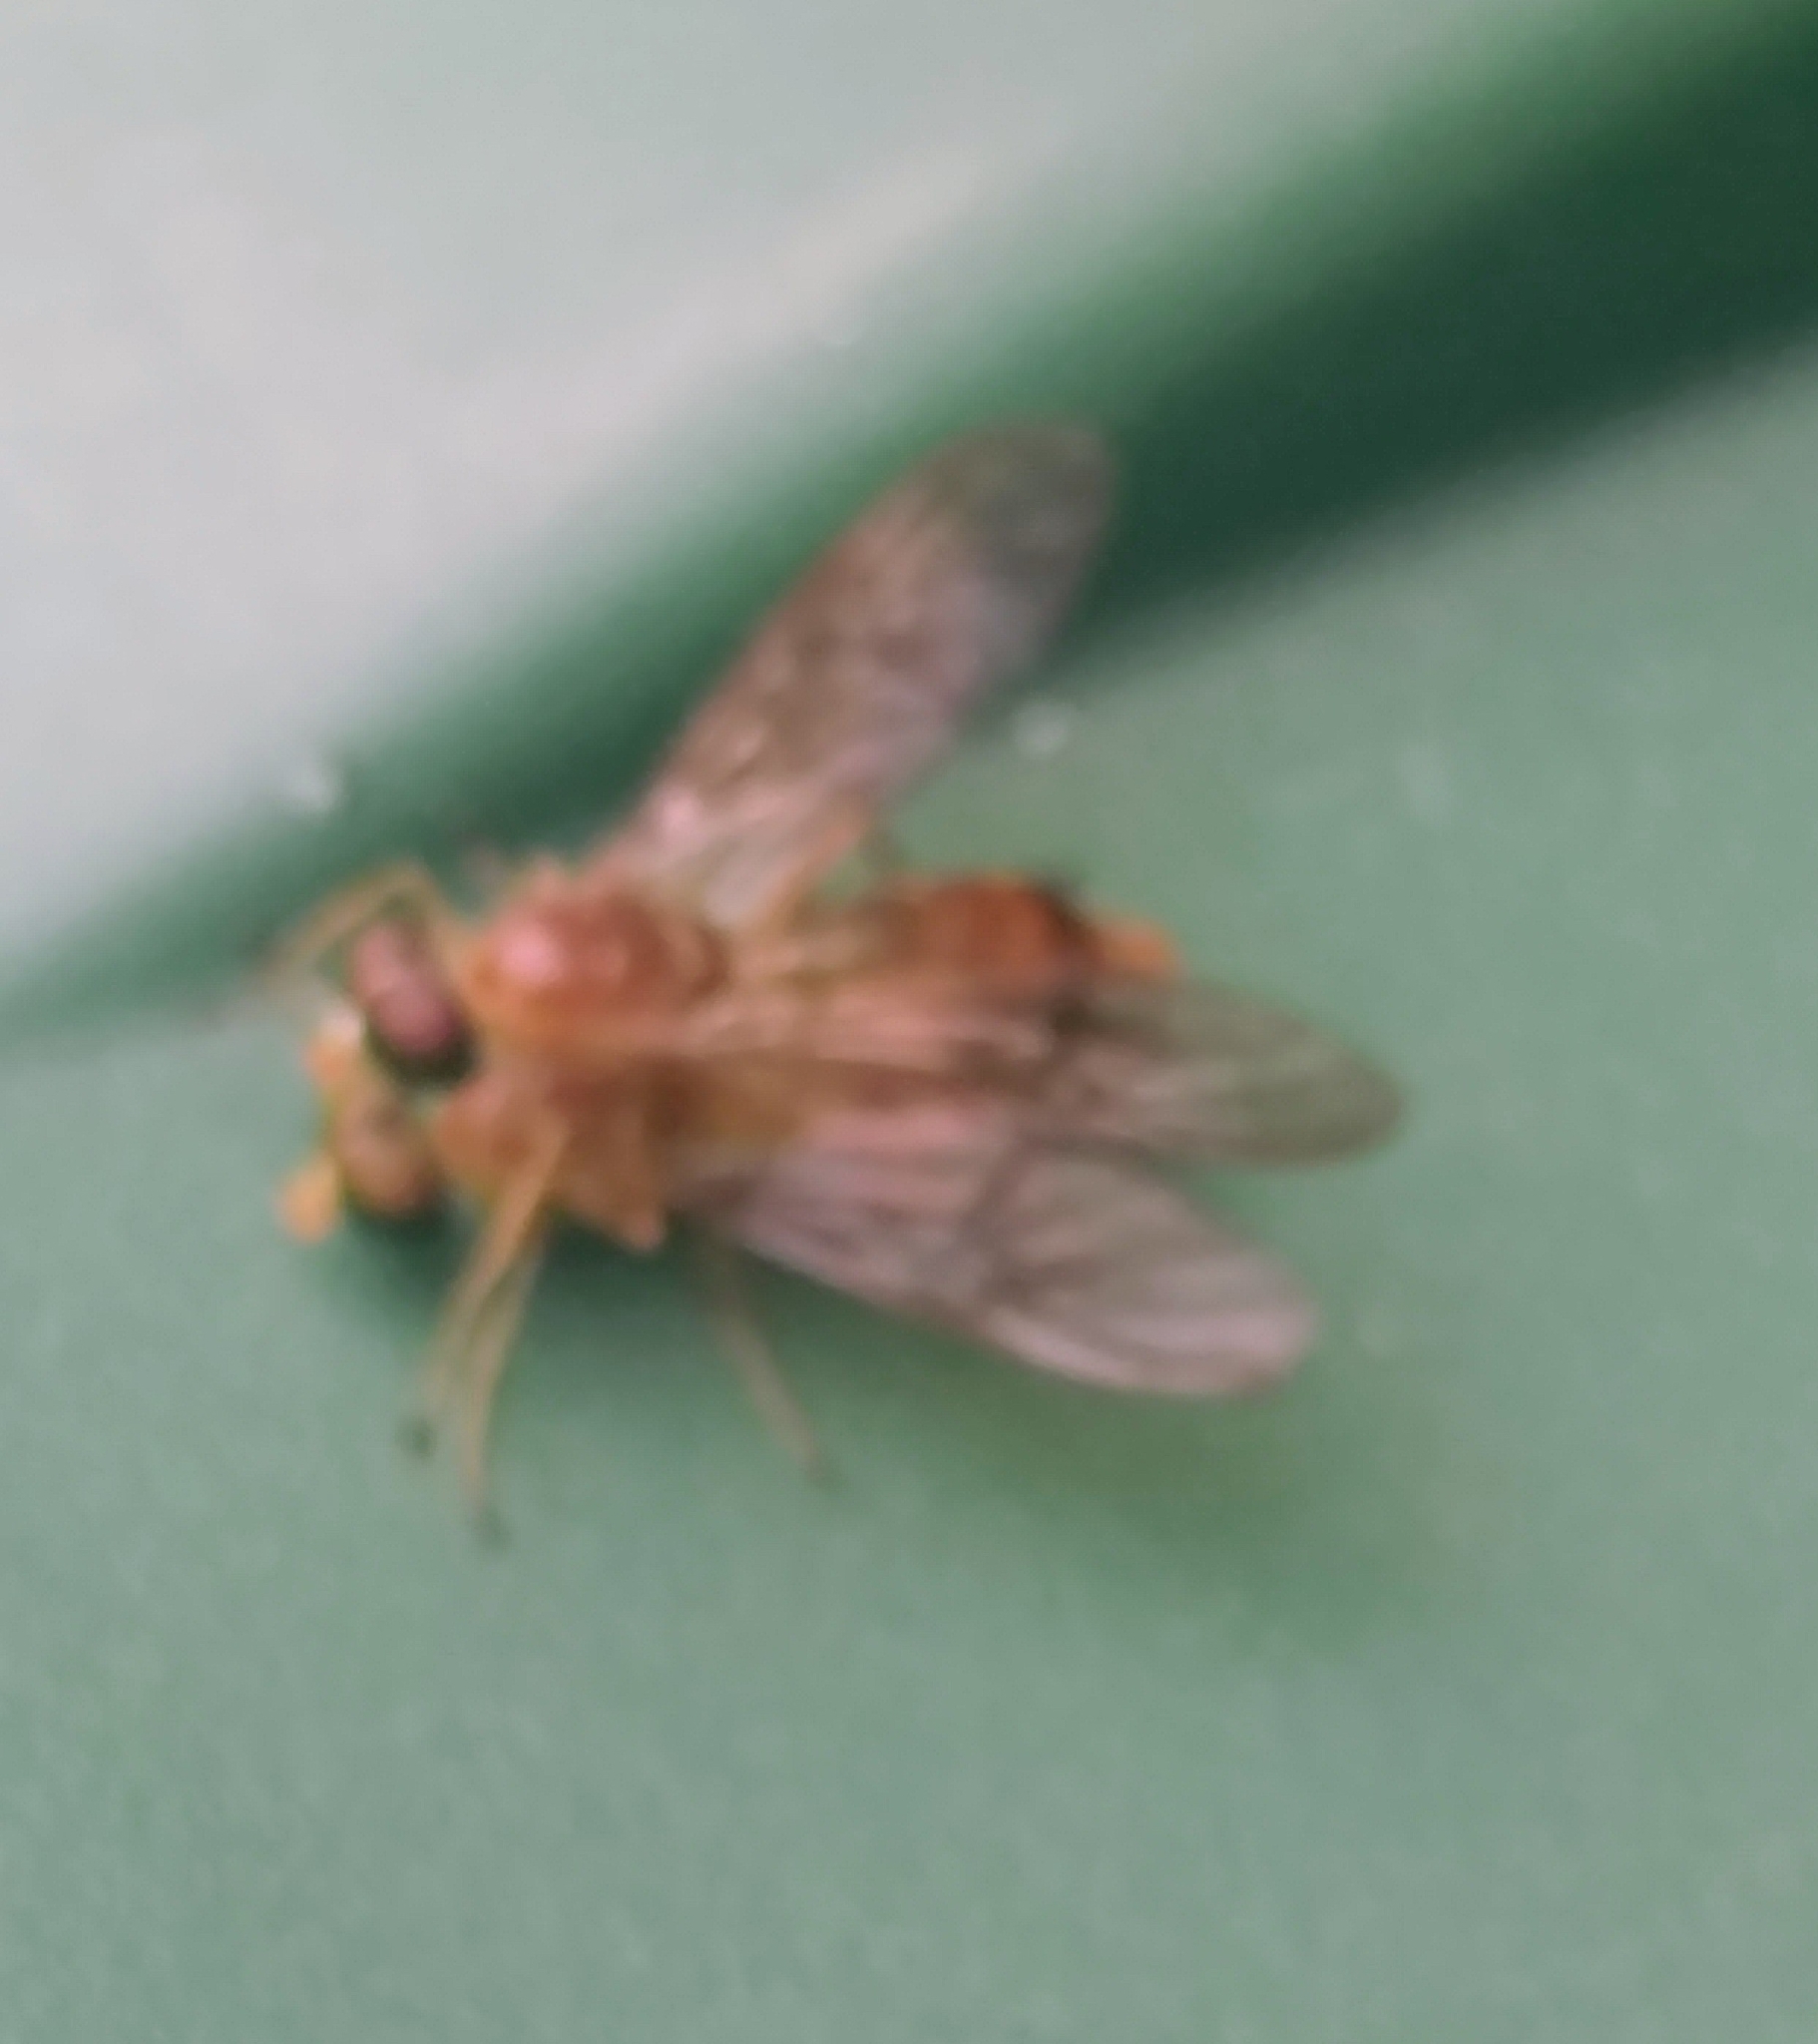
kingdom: Animalia
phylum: Arthropoda
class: Insecta
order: Diptera
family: Stratiomyidae
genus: Ptecticus
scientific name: Ptecticus trivittatus
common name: Compost fly
